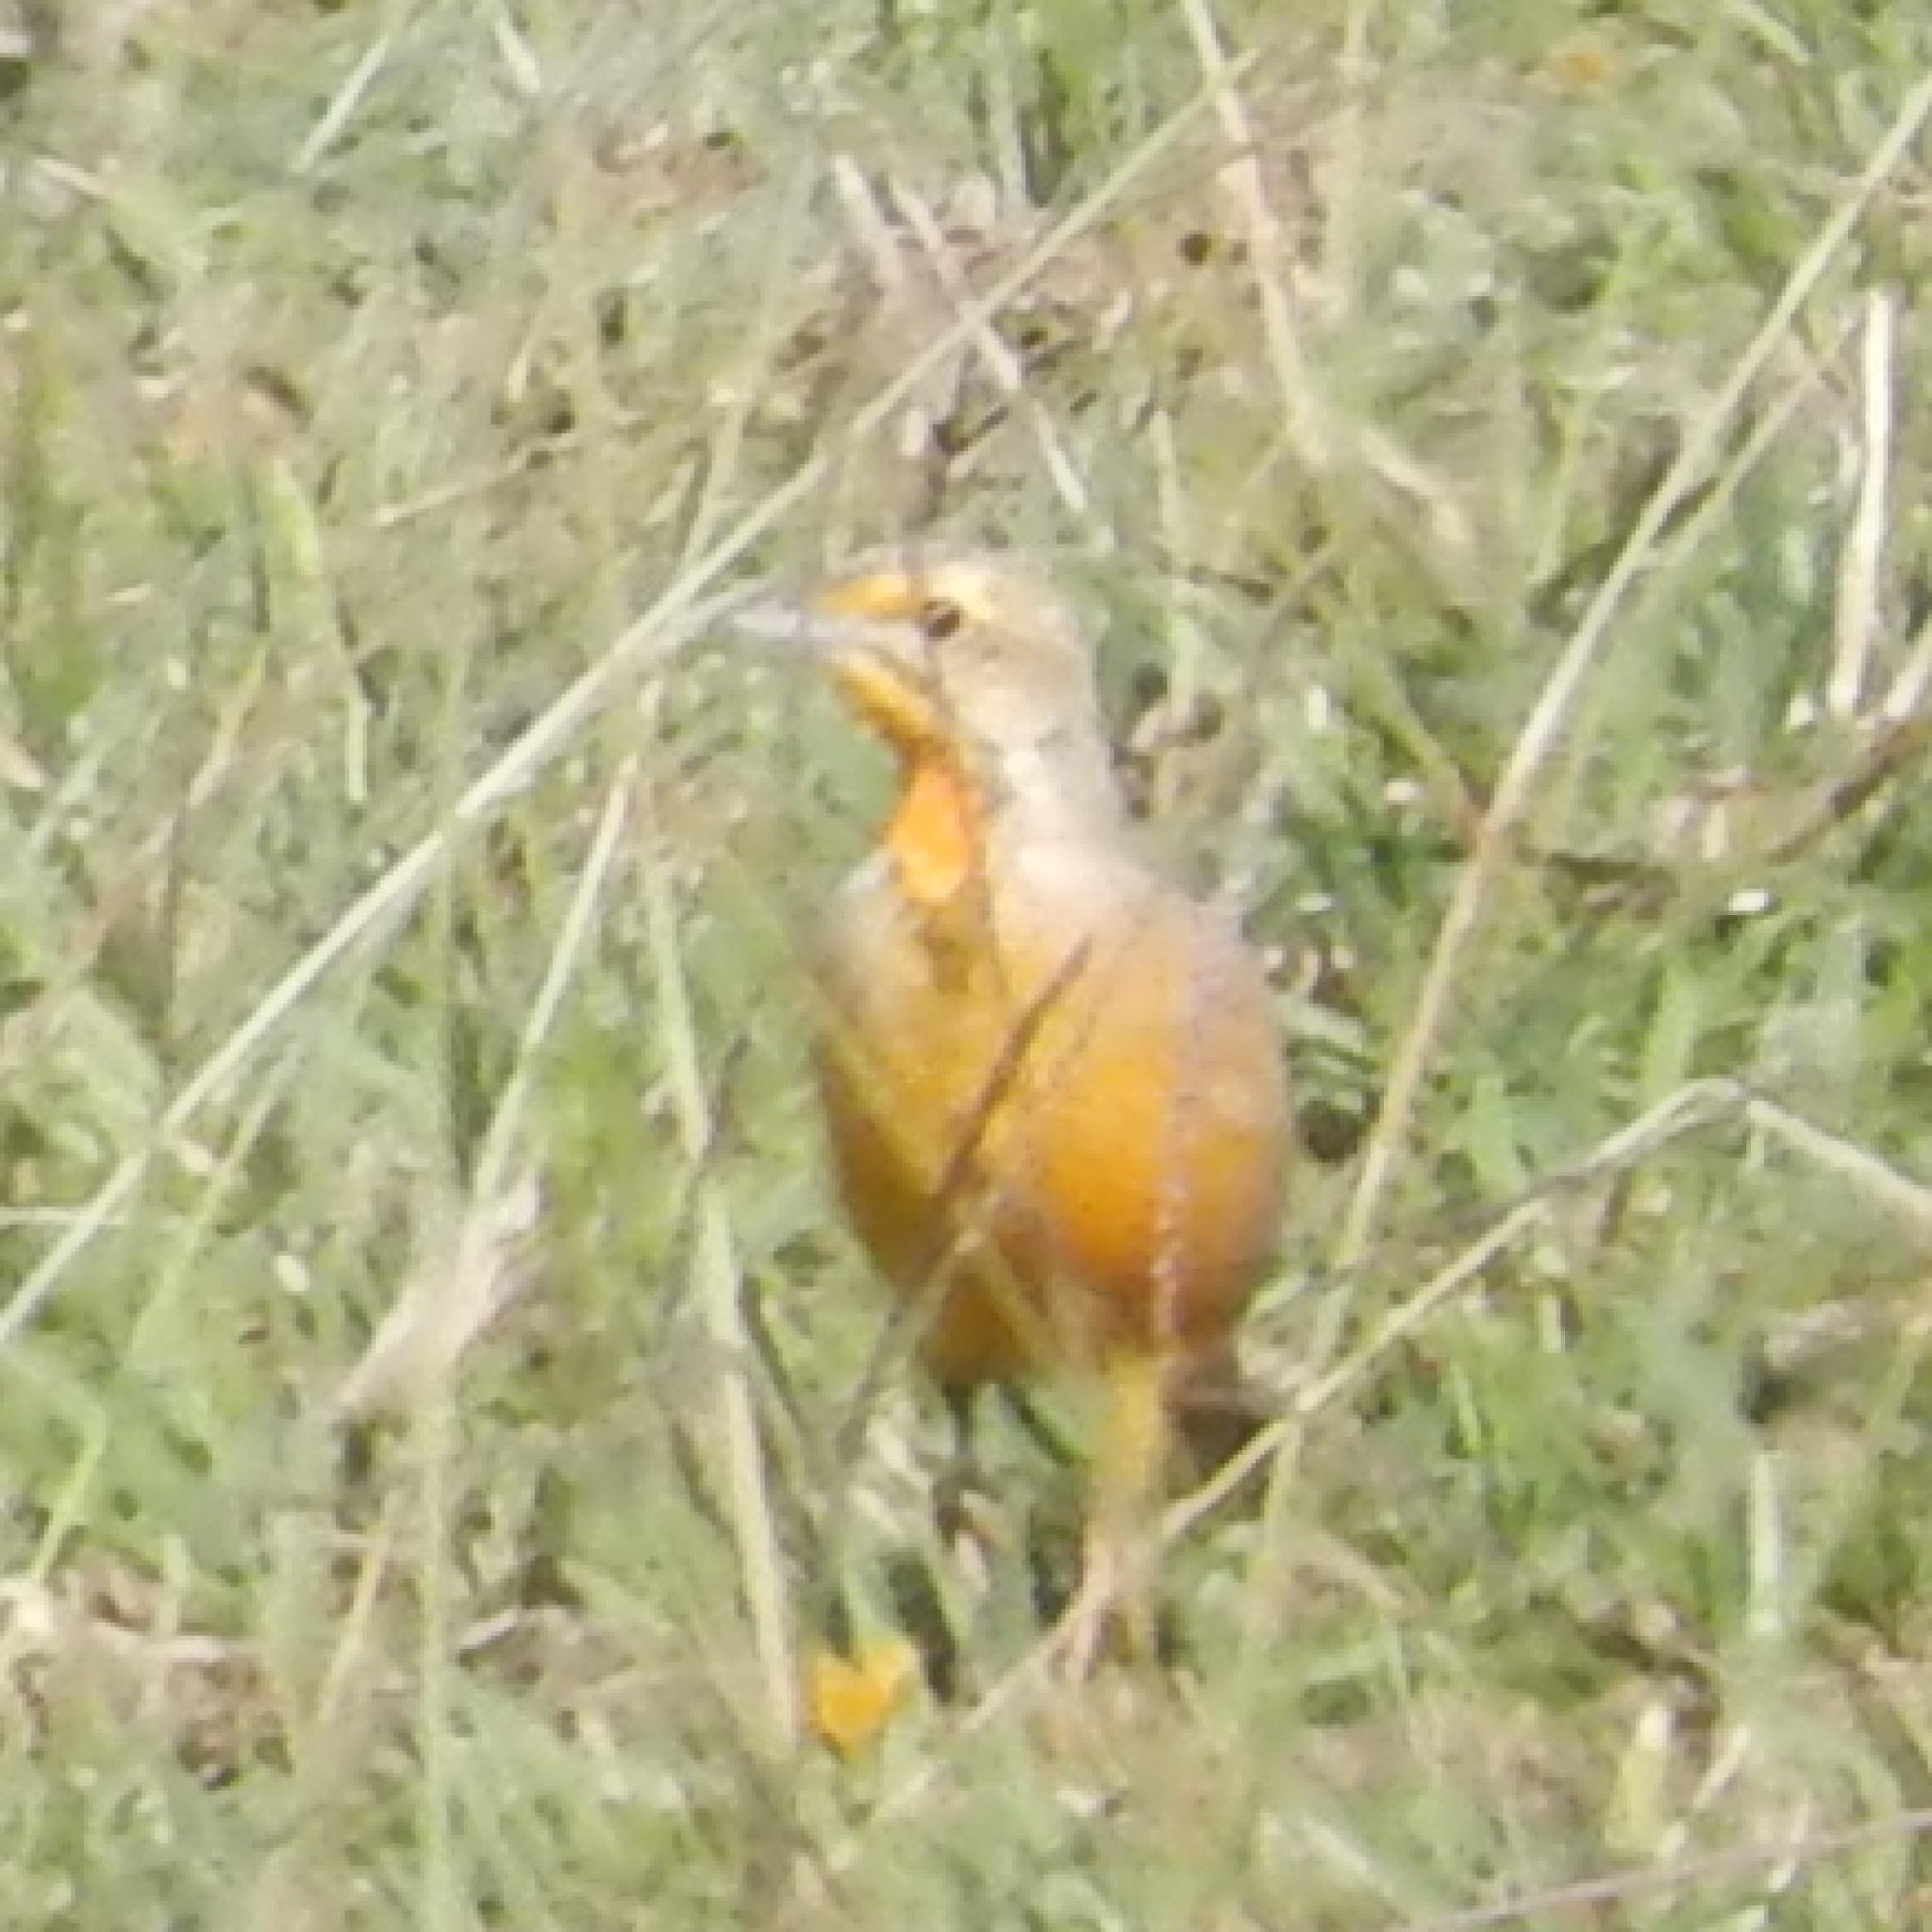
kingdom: Animalia
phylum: Chordata
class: Aves
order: Passeriformes
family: Motacillidae
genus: Macronyx
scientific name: Macronyx capensis
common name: Cape longclaw
